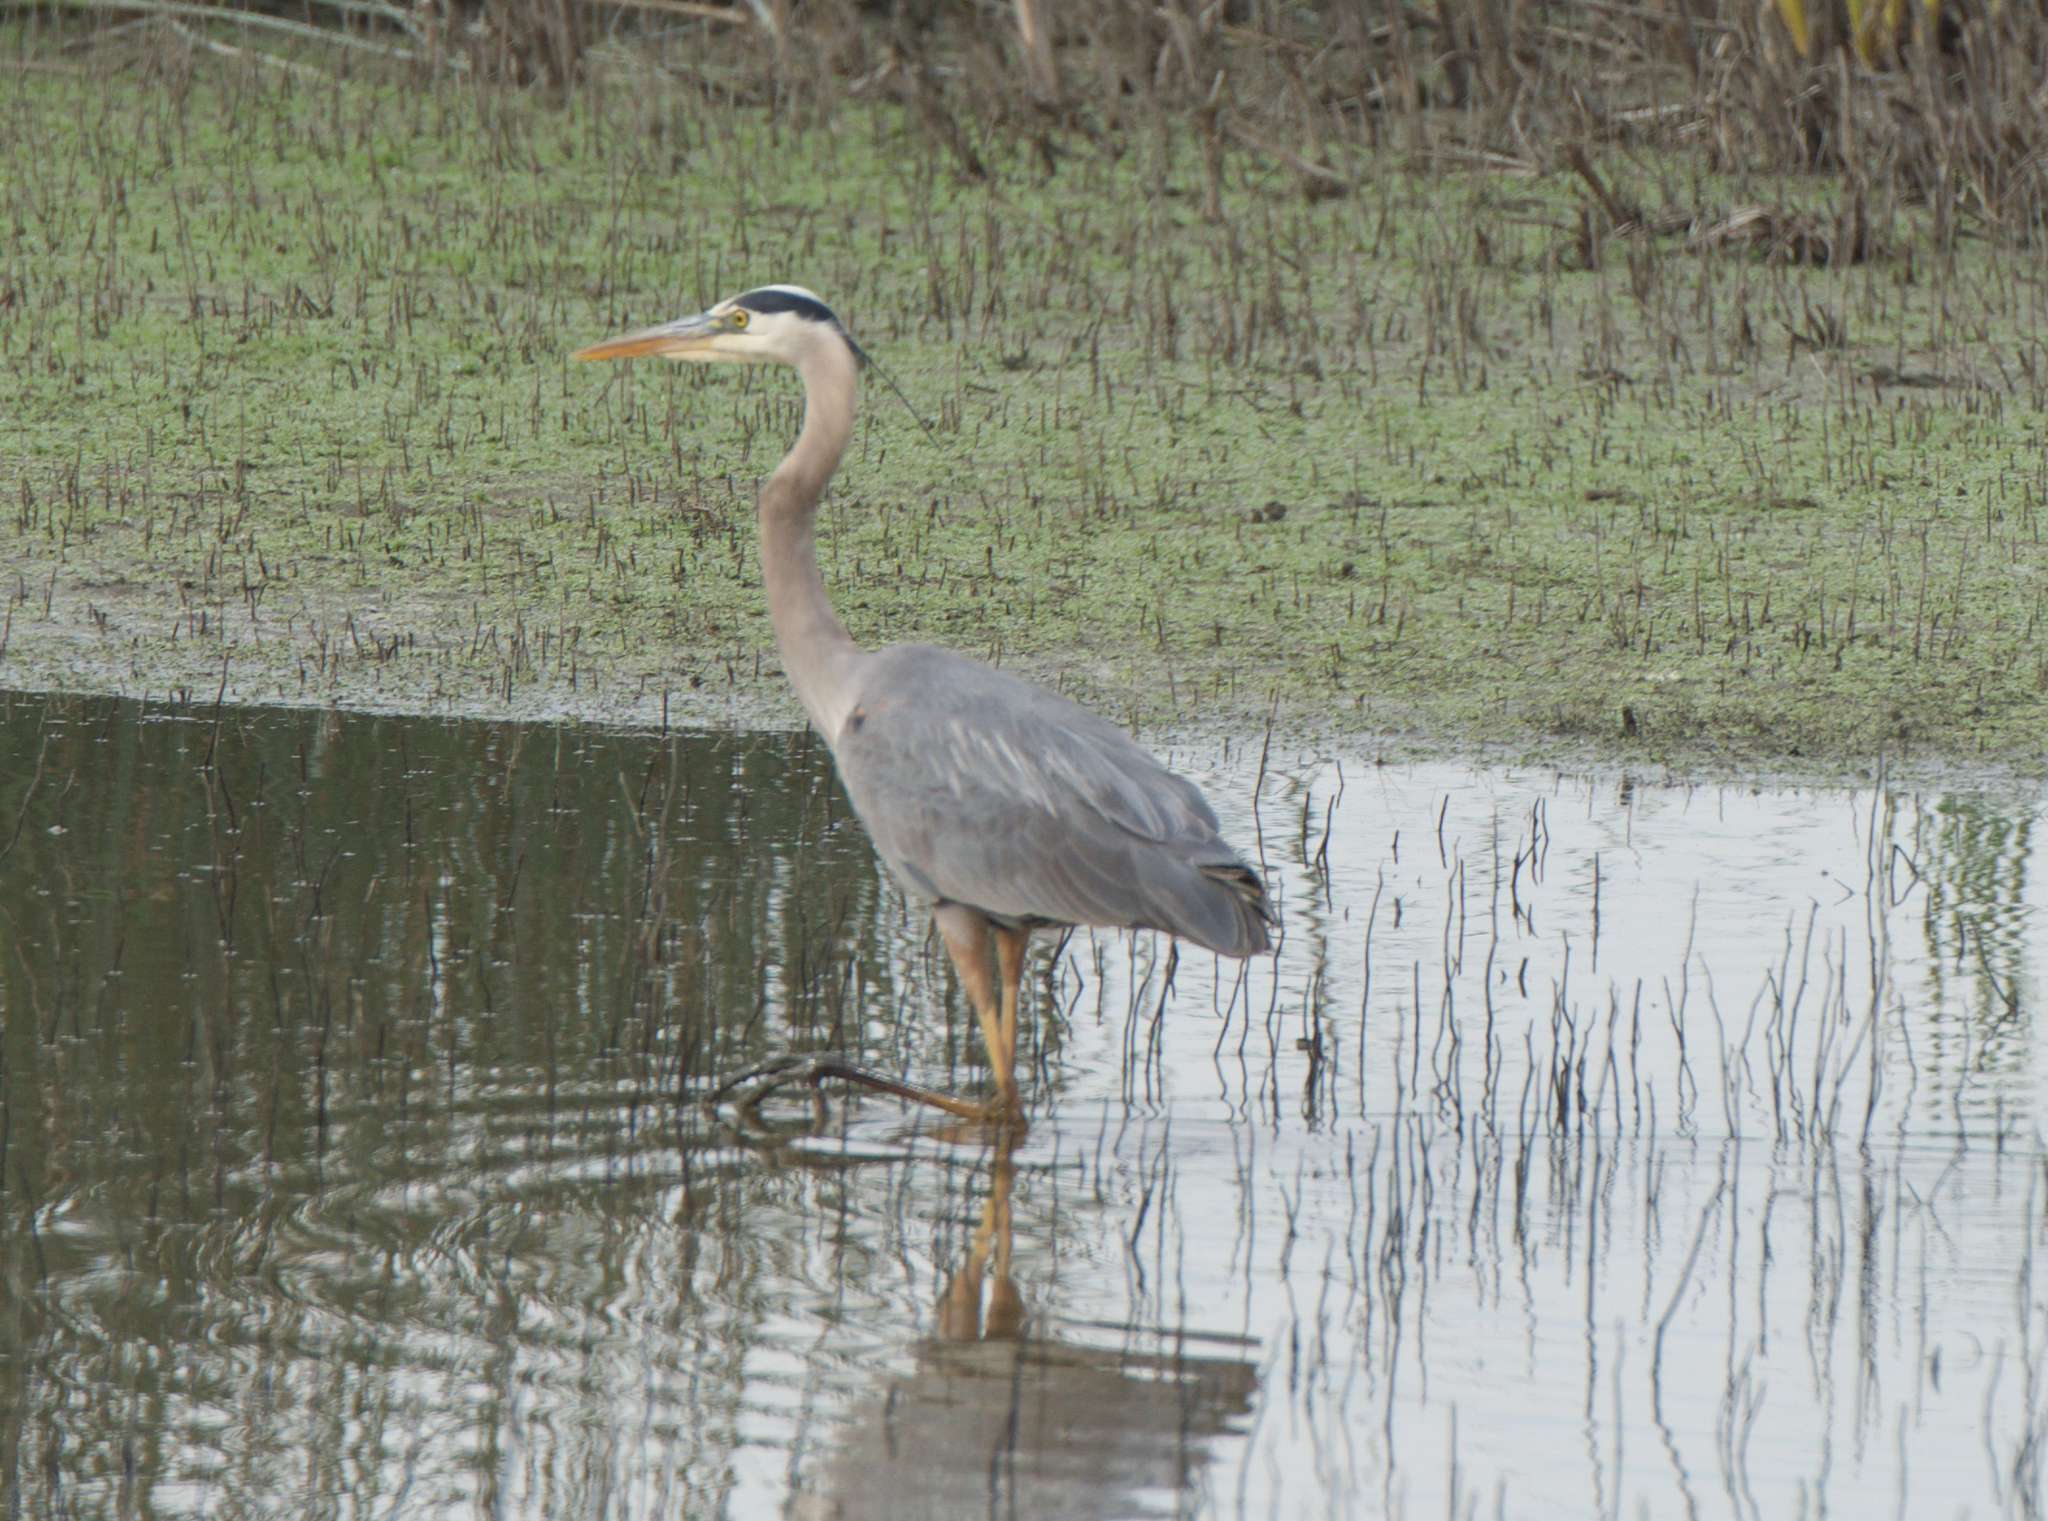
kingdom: Animalia
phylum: Chordata
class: Aves
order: Pelecaniformes
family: Ardeidae
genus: Ardea
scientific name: Ardea herodias
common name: Great blue heron
